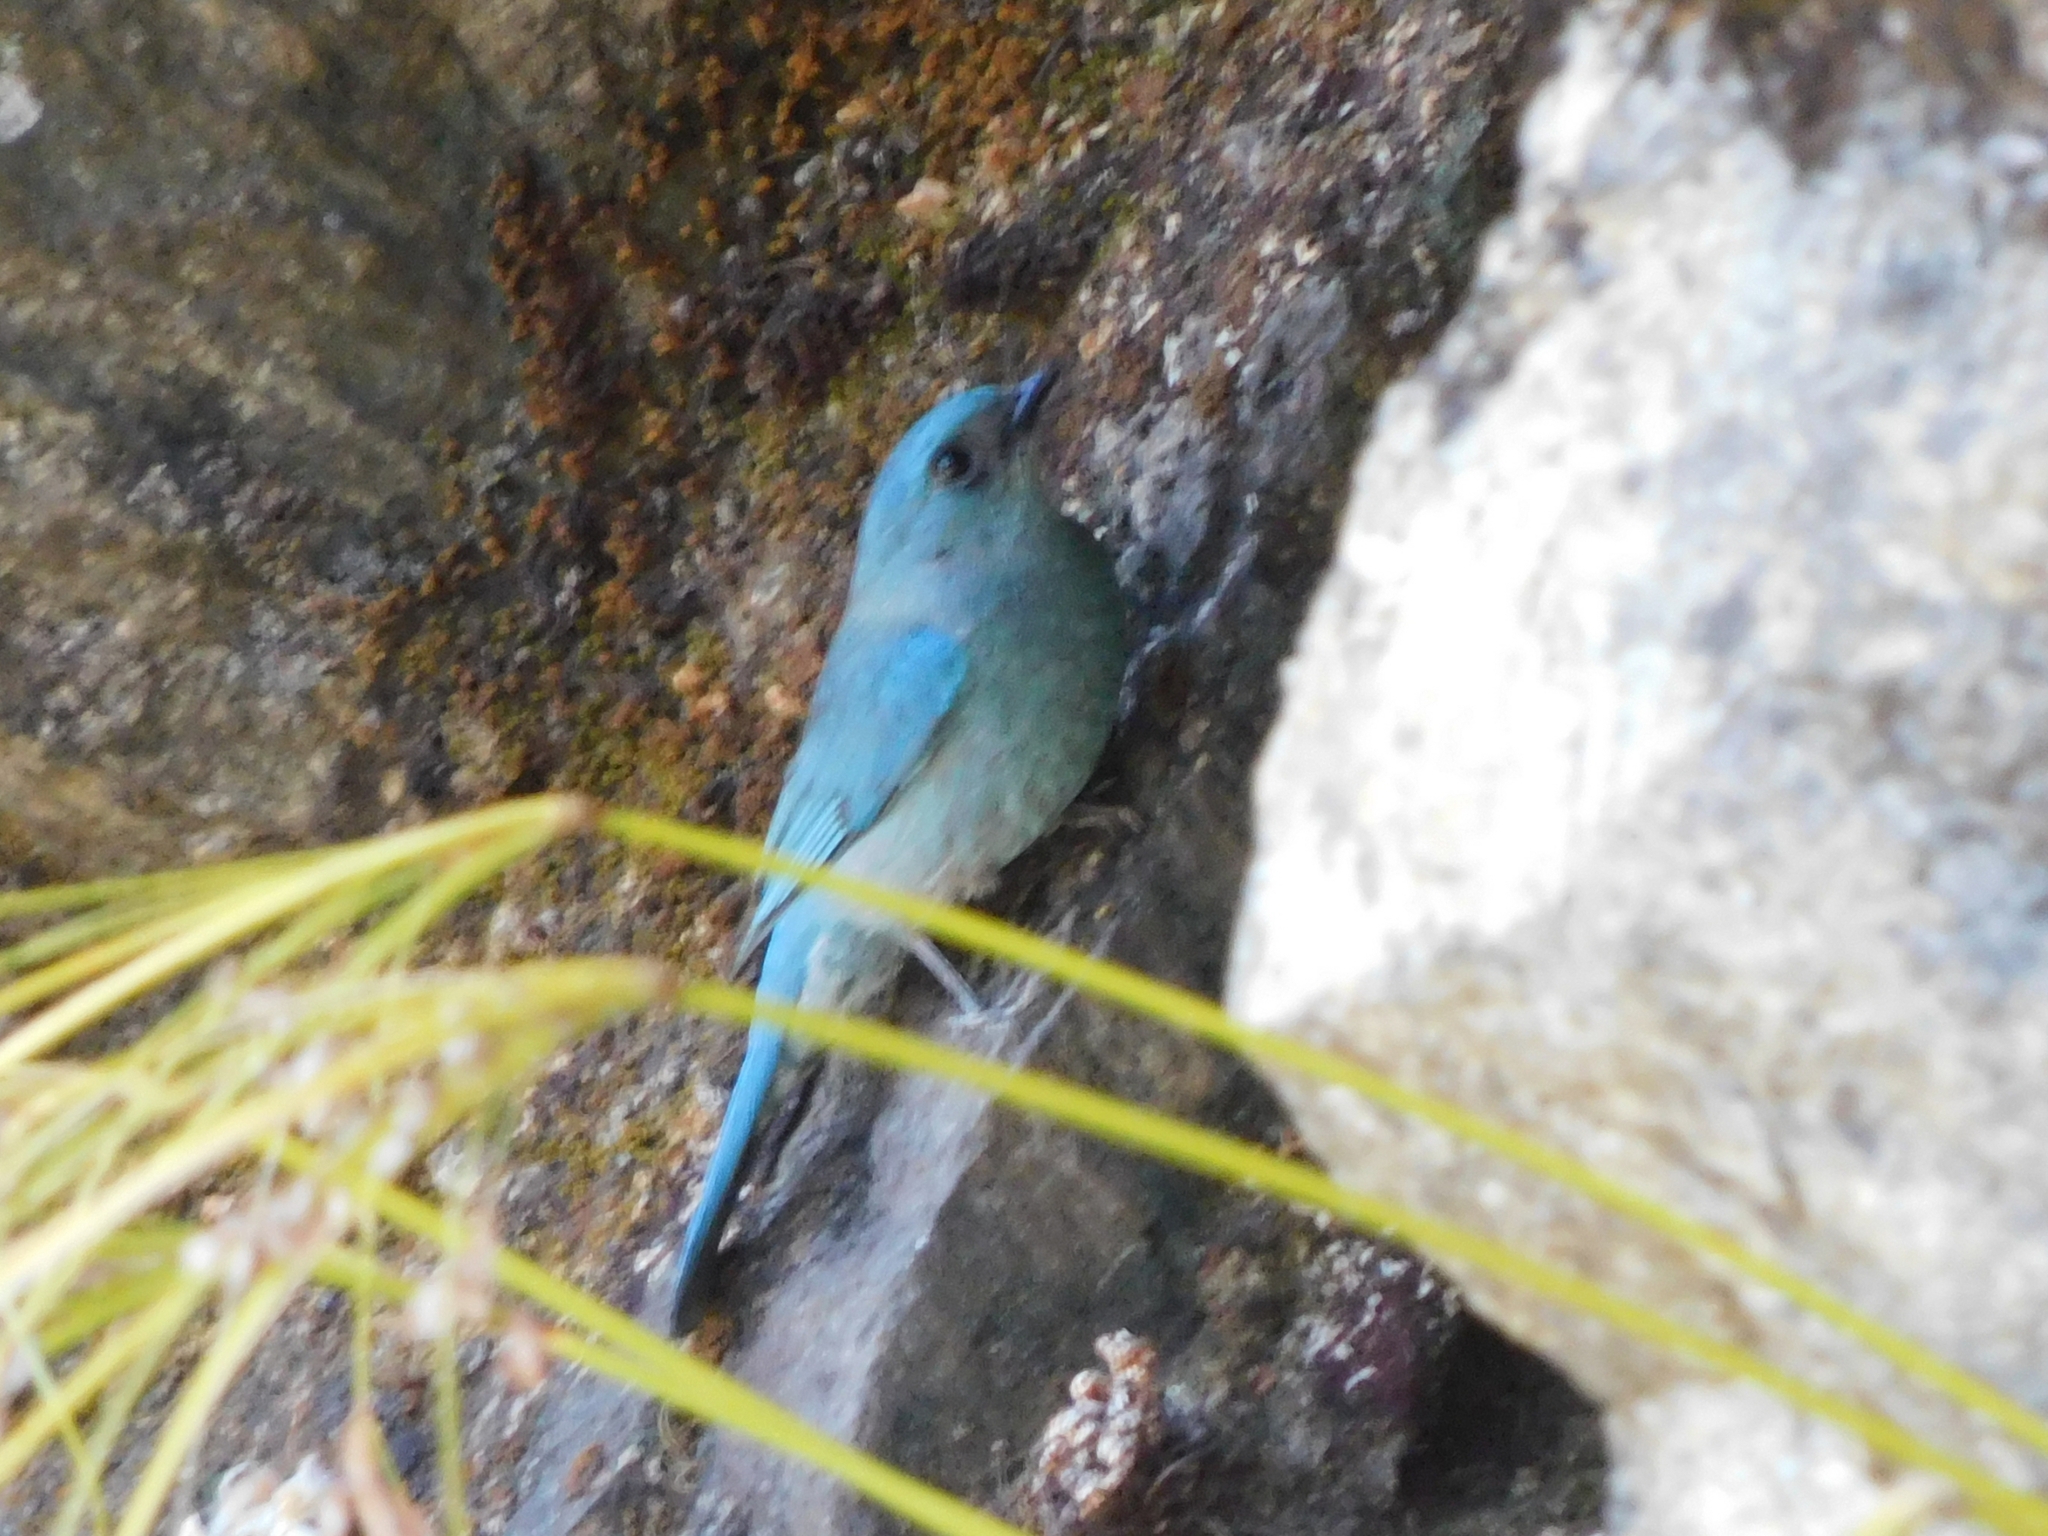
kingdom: Animalia
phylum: Chordata
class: Aves
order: Passeriformes
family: Muscicapidae
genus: Eumyias
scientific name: Eumyias thalassinus
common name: Verditer flycatcher
